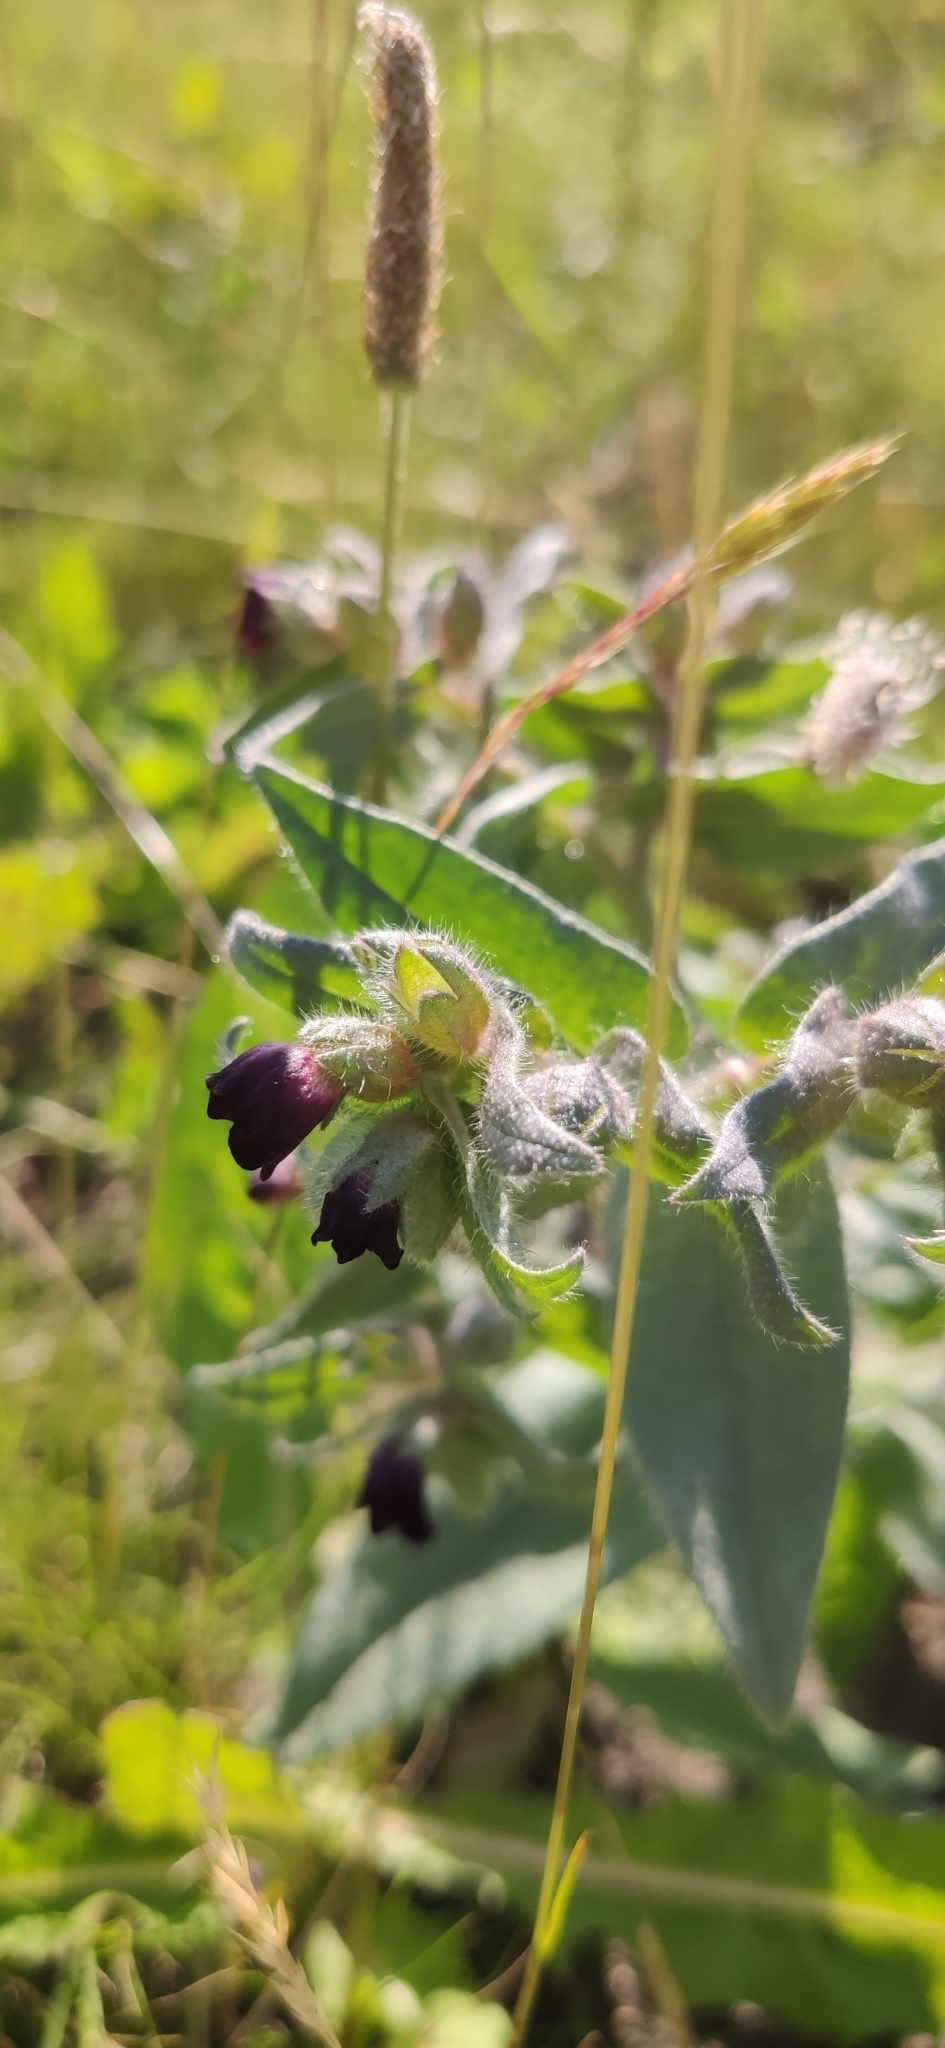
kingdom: Plantae
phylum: Tracheophyta
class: Magnoliopsida
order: Boraginales
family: Boraginaceae
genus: Nonea
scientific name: Nonea pulla
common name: Brown nonea
